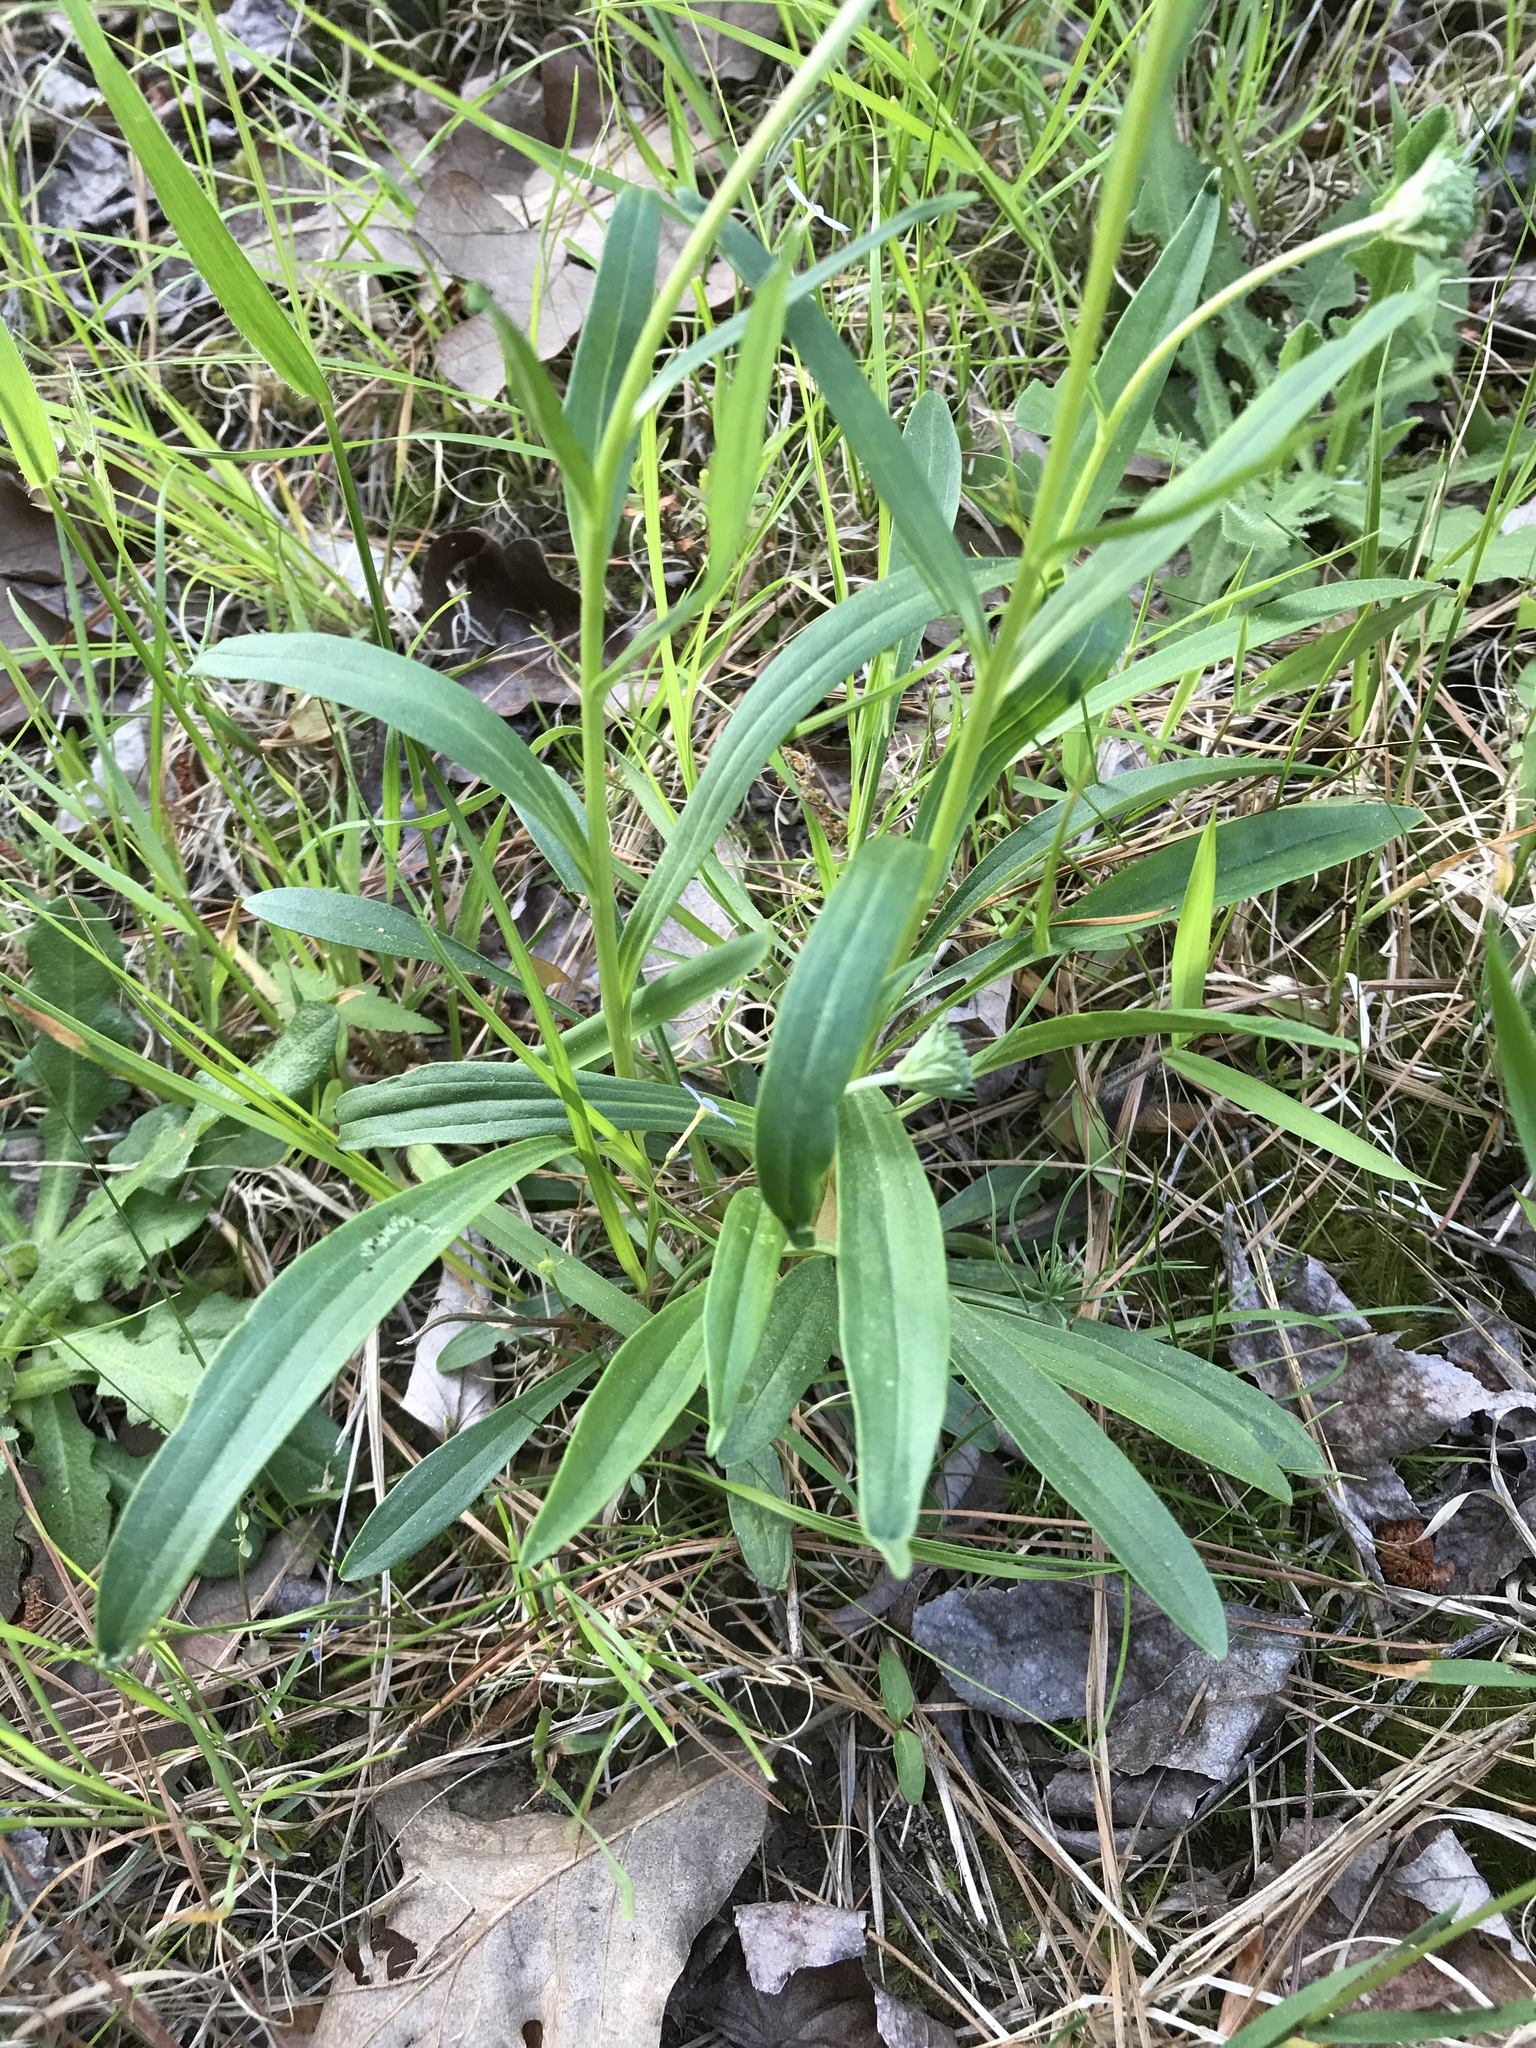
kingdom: Plantae
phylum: Tracheophyta
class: Magnoliopsida
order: Asterales
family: Asteraceae
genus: Marshallia
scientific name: Marshallia obovata
